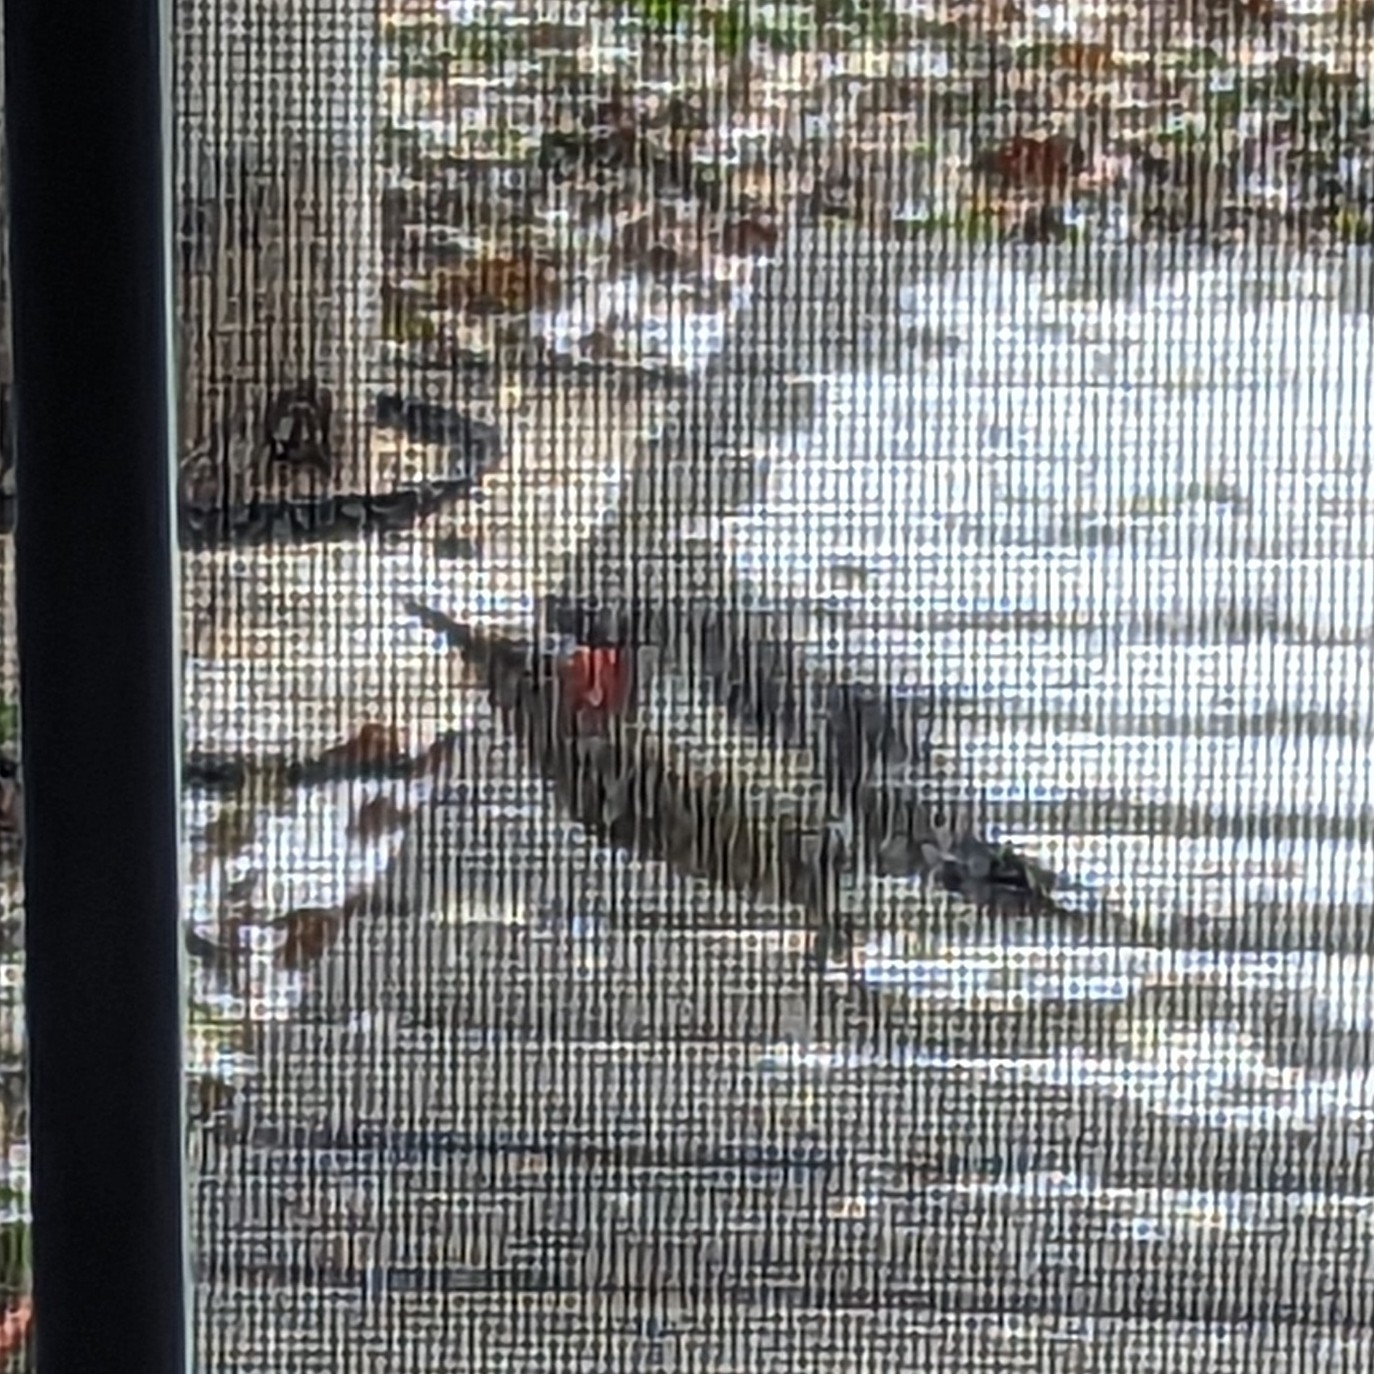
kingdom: Animalia
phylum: Chordata
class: Aves
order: Piciformes
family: Picidae
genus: Melanerpes
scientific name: Melanerpes carolinus
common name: Red-bellied woodpecker
